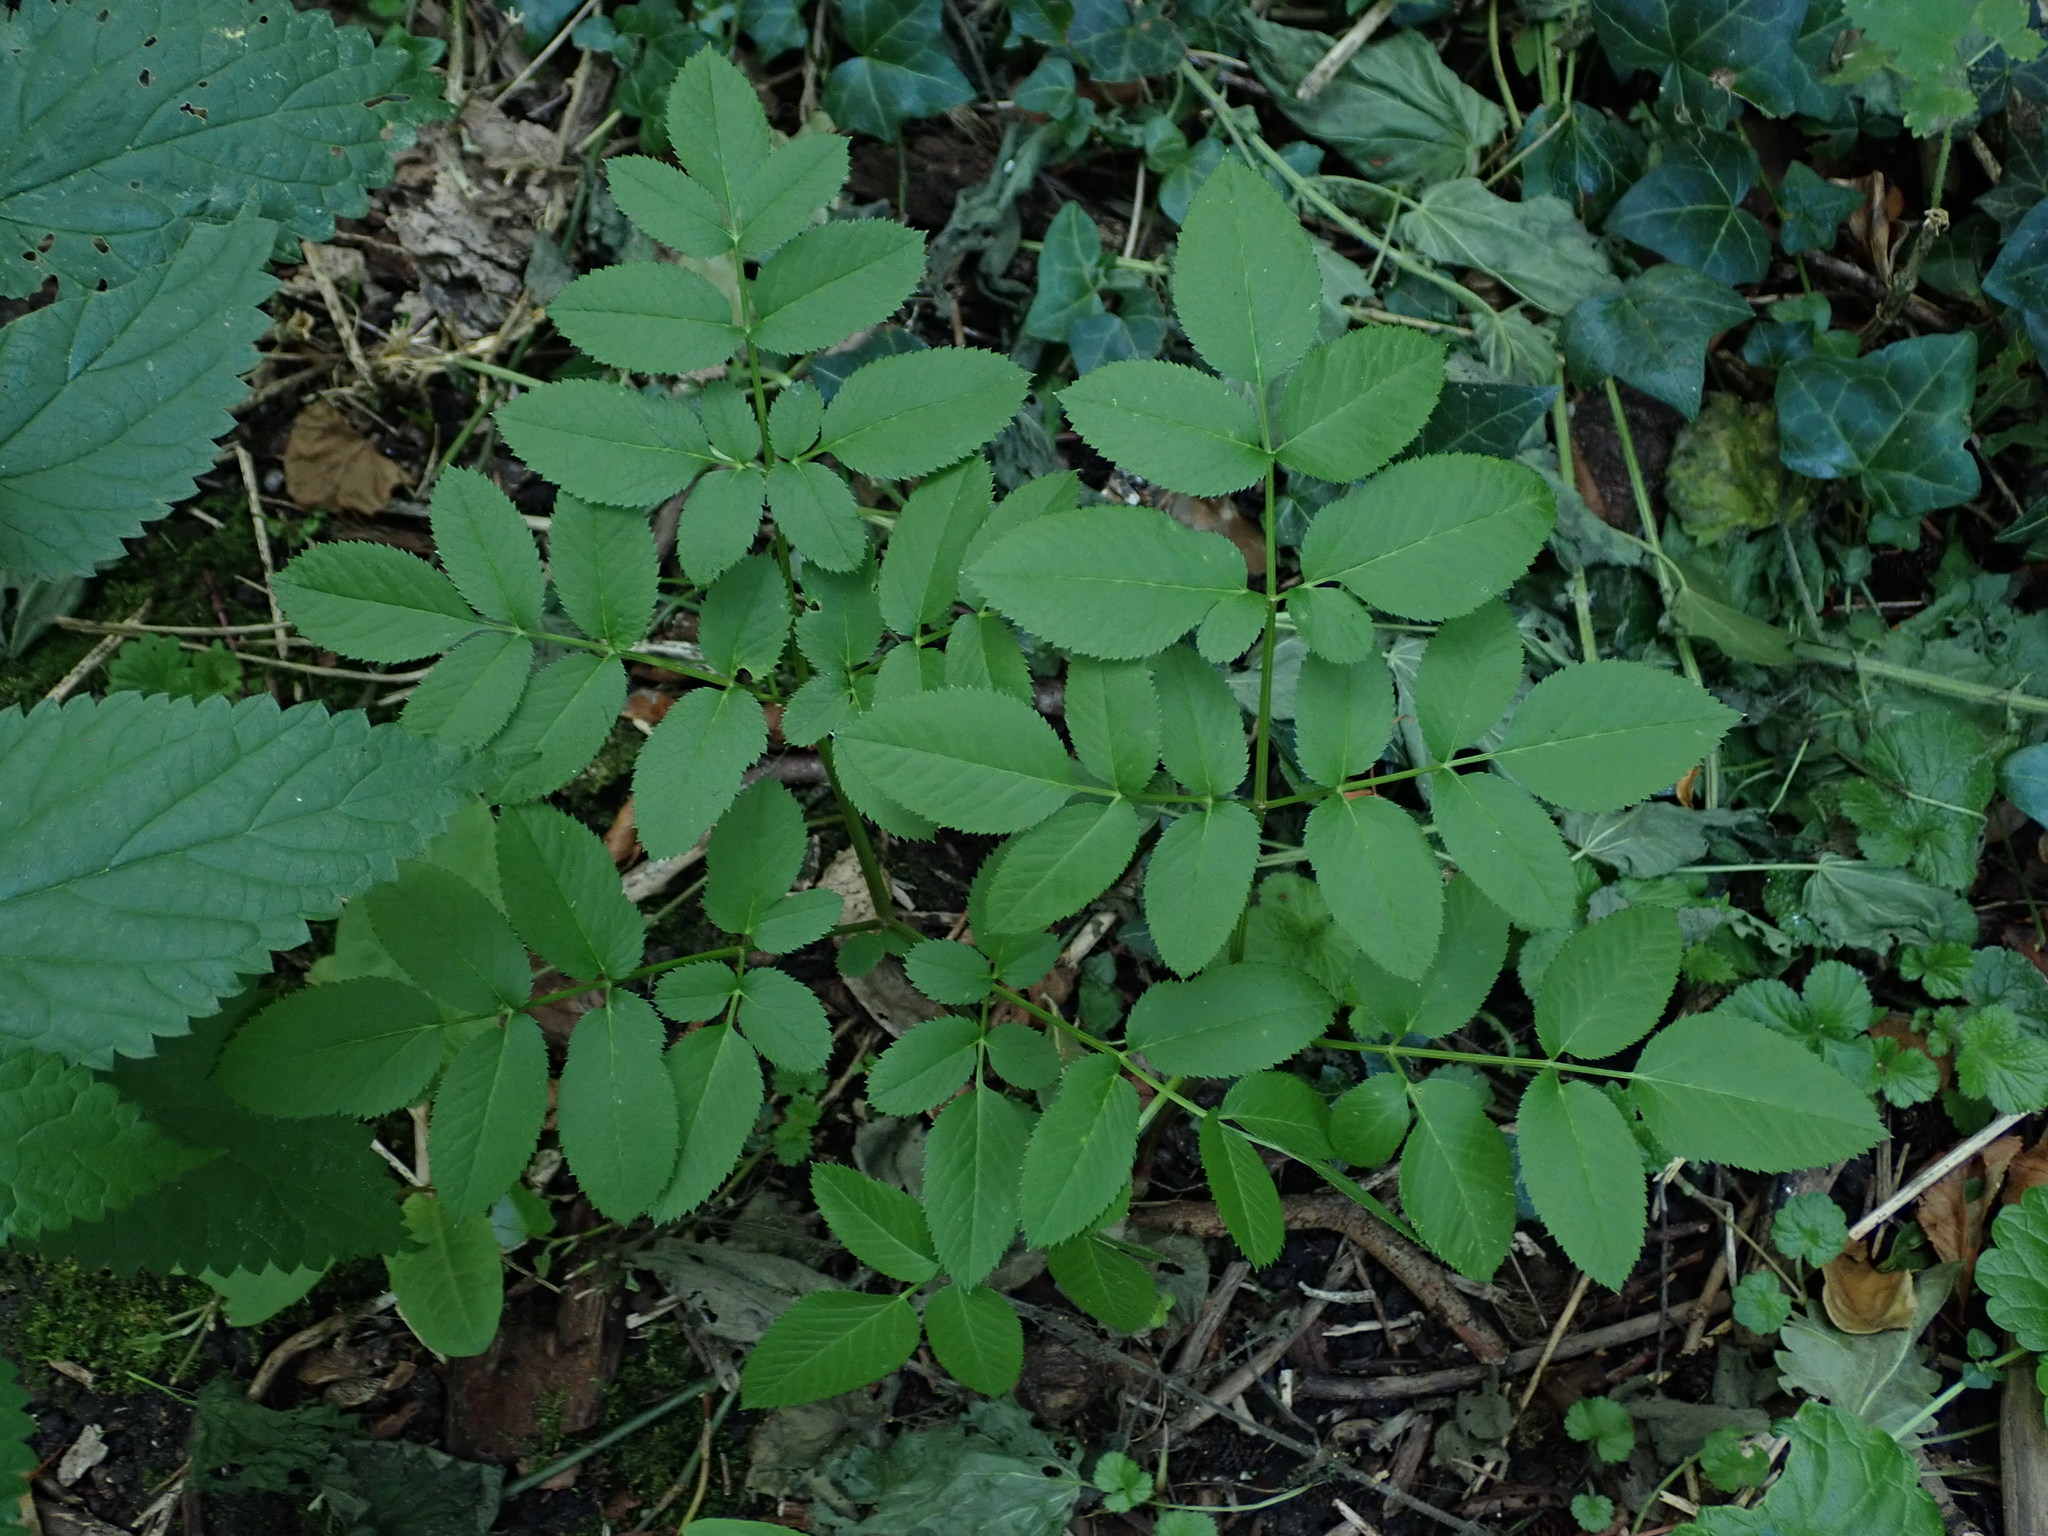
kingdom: Plantae
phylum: Tracheophyta
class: Magnoliopsida
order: Apiales
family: Apiaceae
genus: Angelica
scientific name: Angelica sylvestris
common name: Wild angelica
